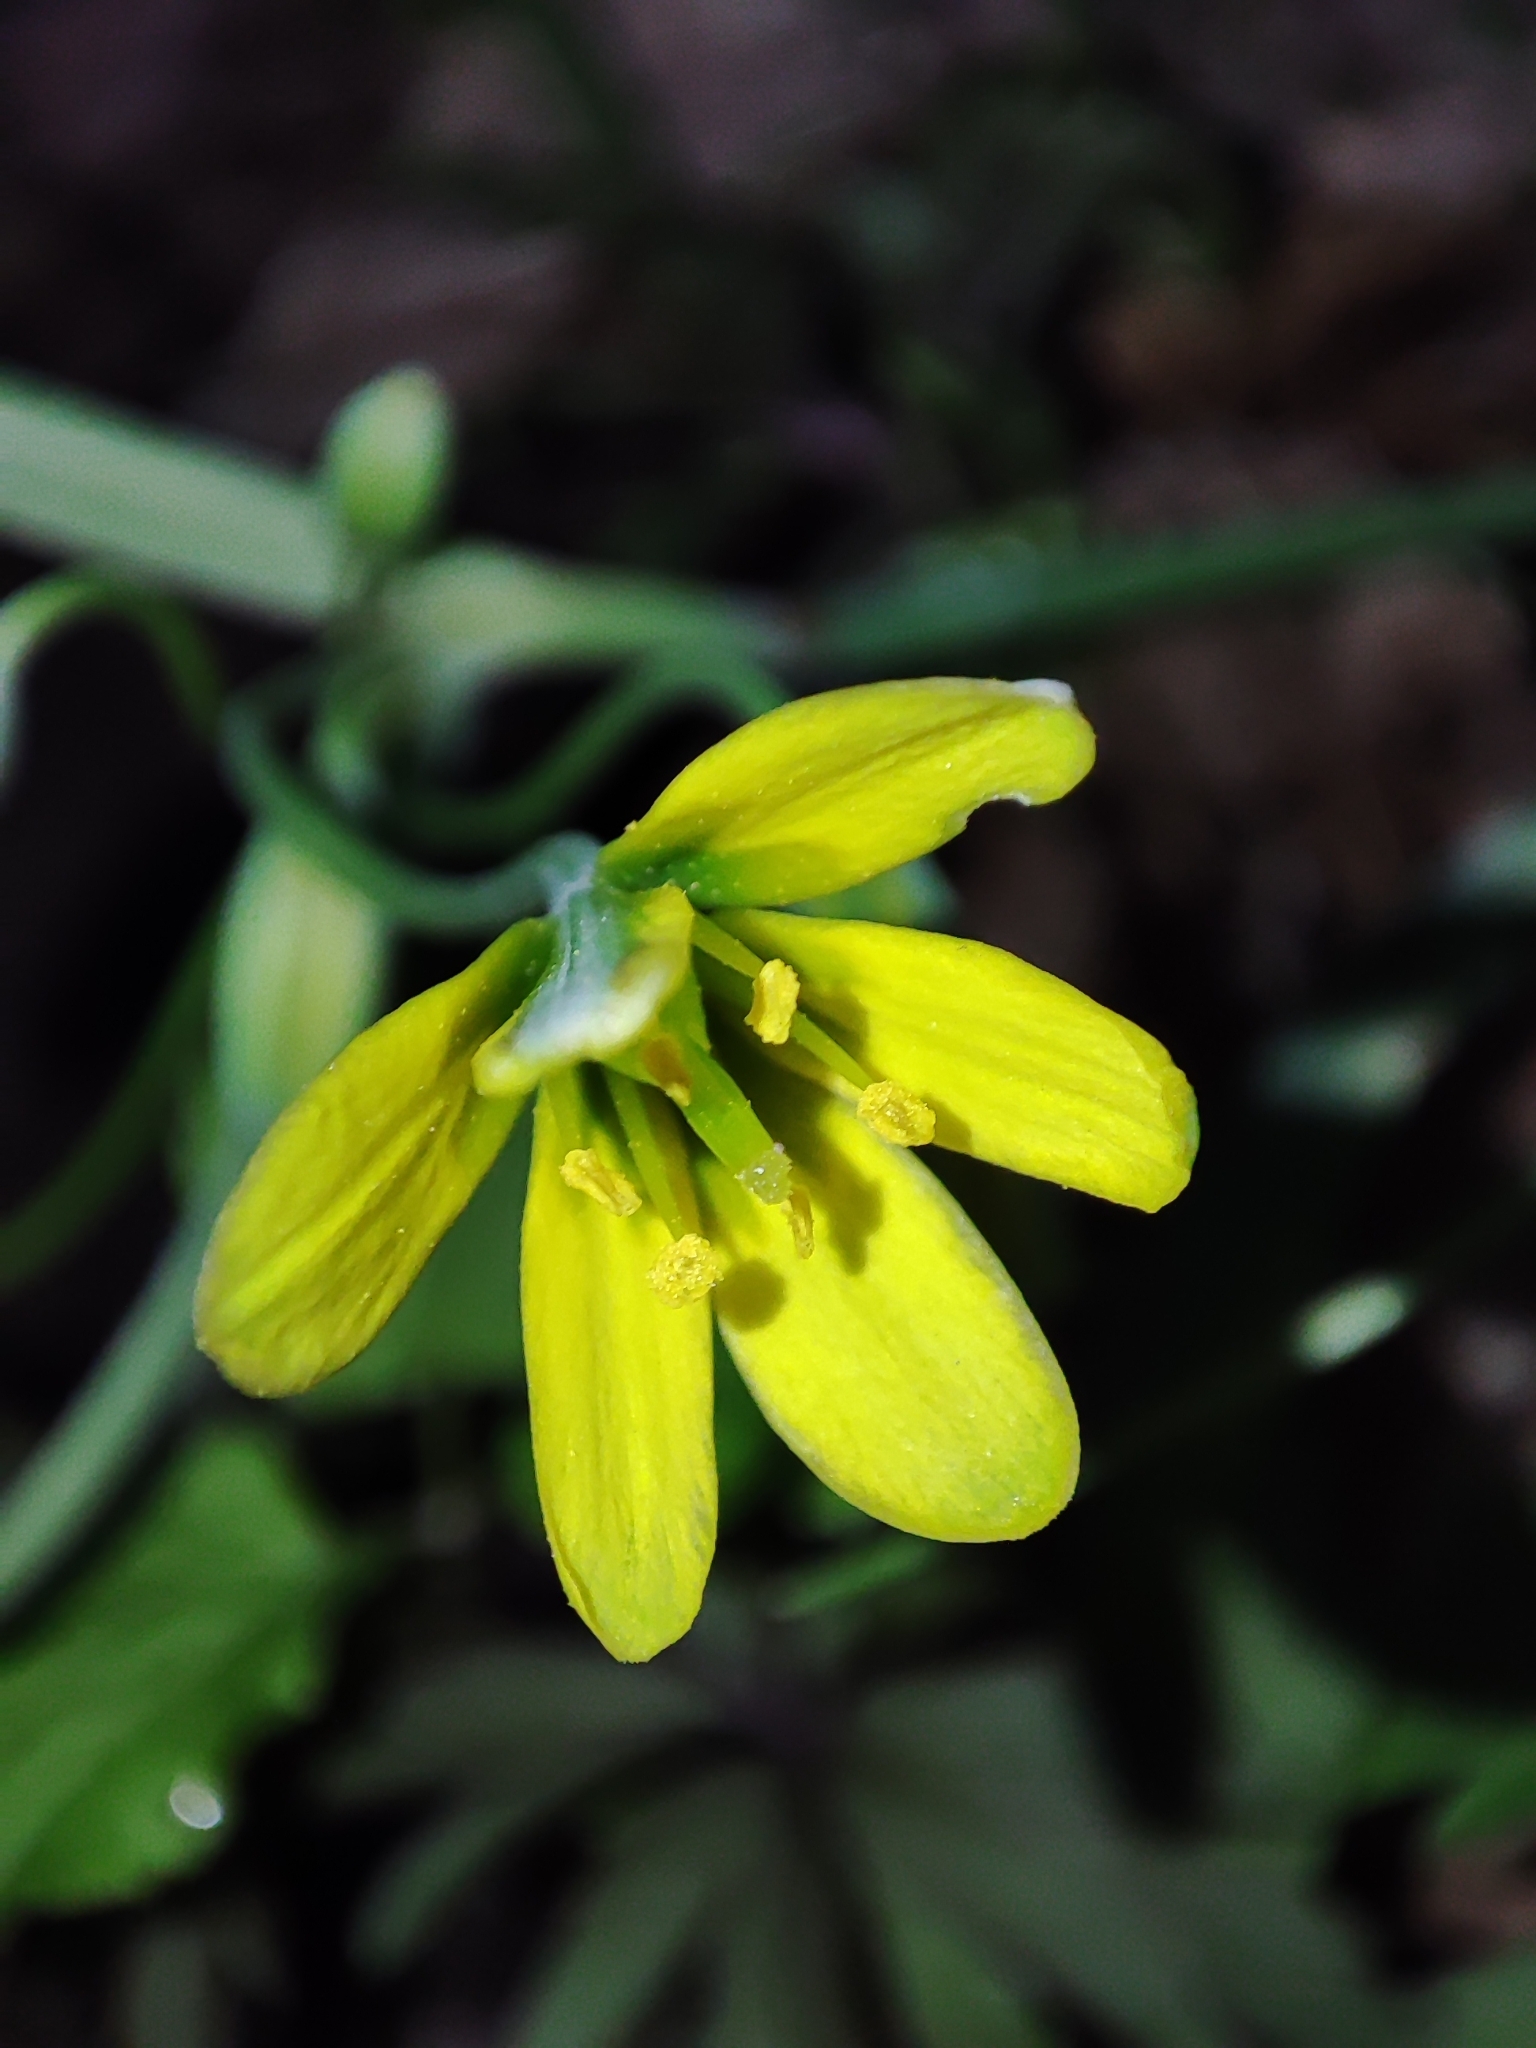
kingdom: Plantae
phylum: Tracheophyta
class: Liliopsida
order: Liliales
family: Liliaceae
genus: Gagea
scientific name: Gagea lutea
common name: Yellow star-of-bethlehem
